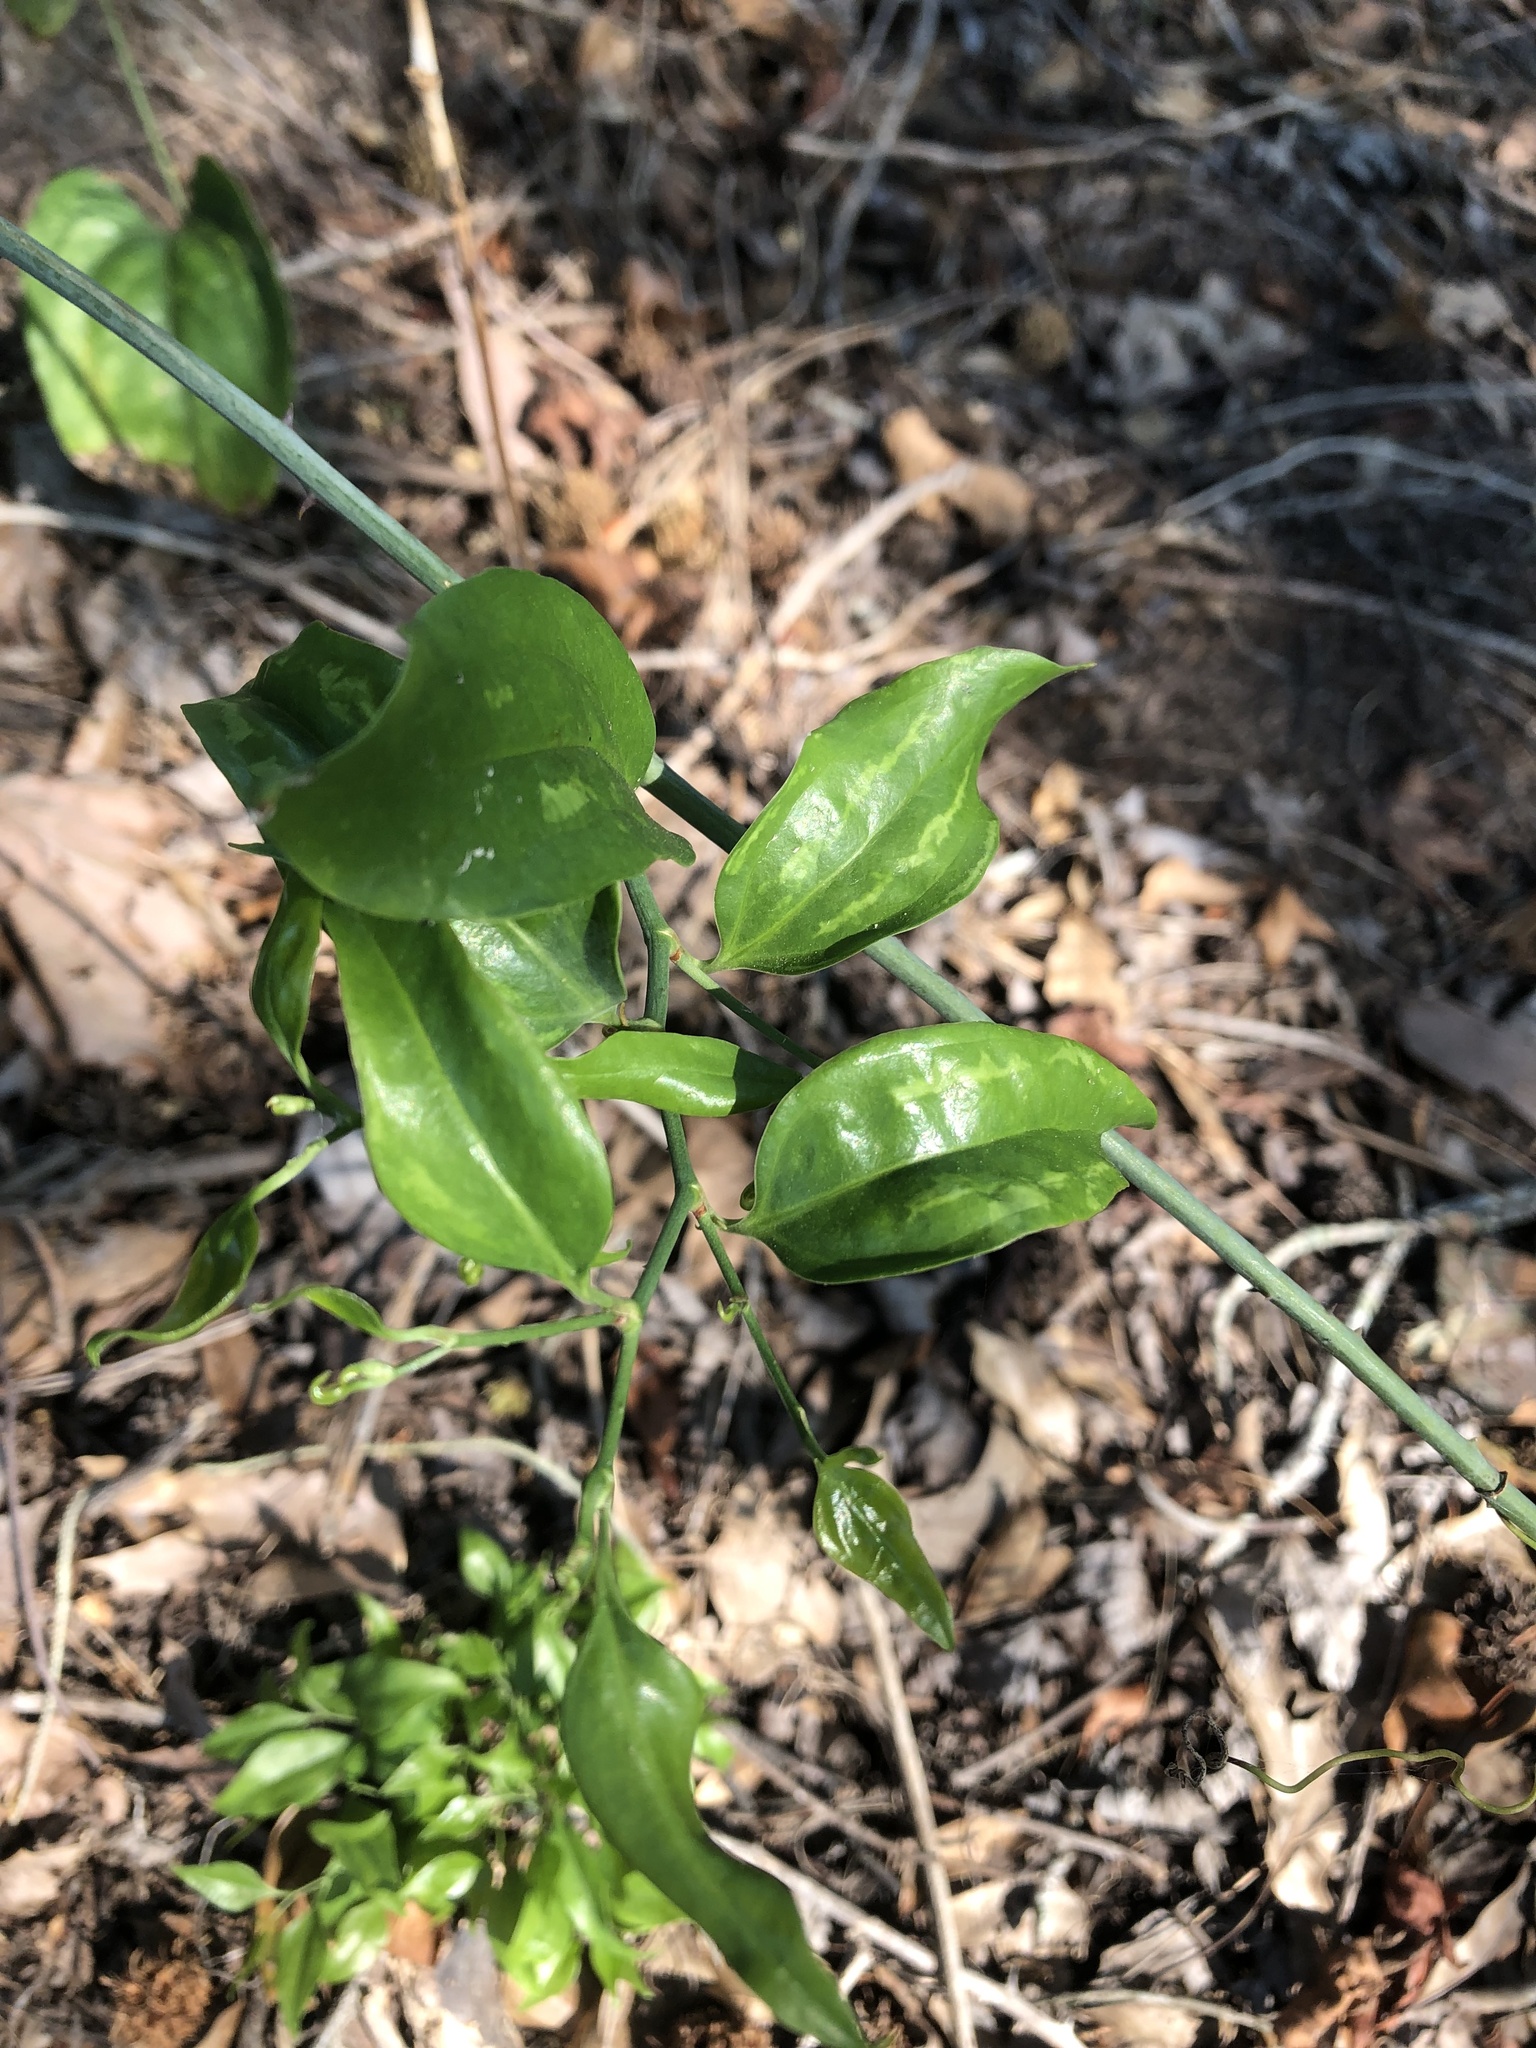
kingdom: Plantae
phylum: Tracheophyta
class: Liliopsida
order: Liliales
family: Smilacaceae
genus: Smilax
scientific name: Smilax maritima
